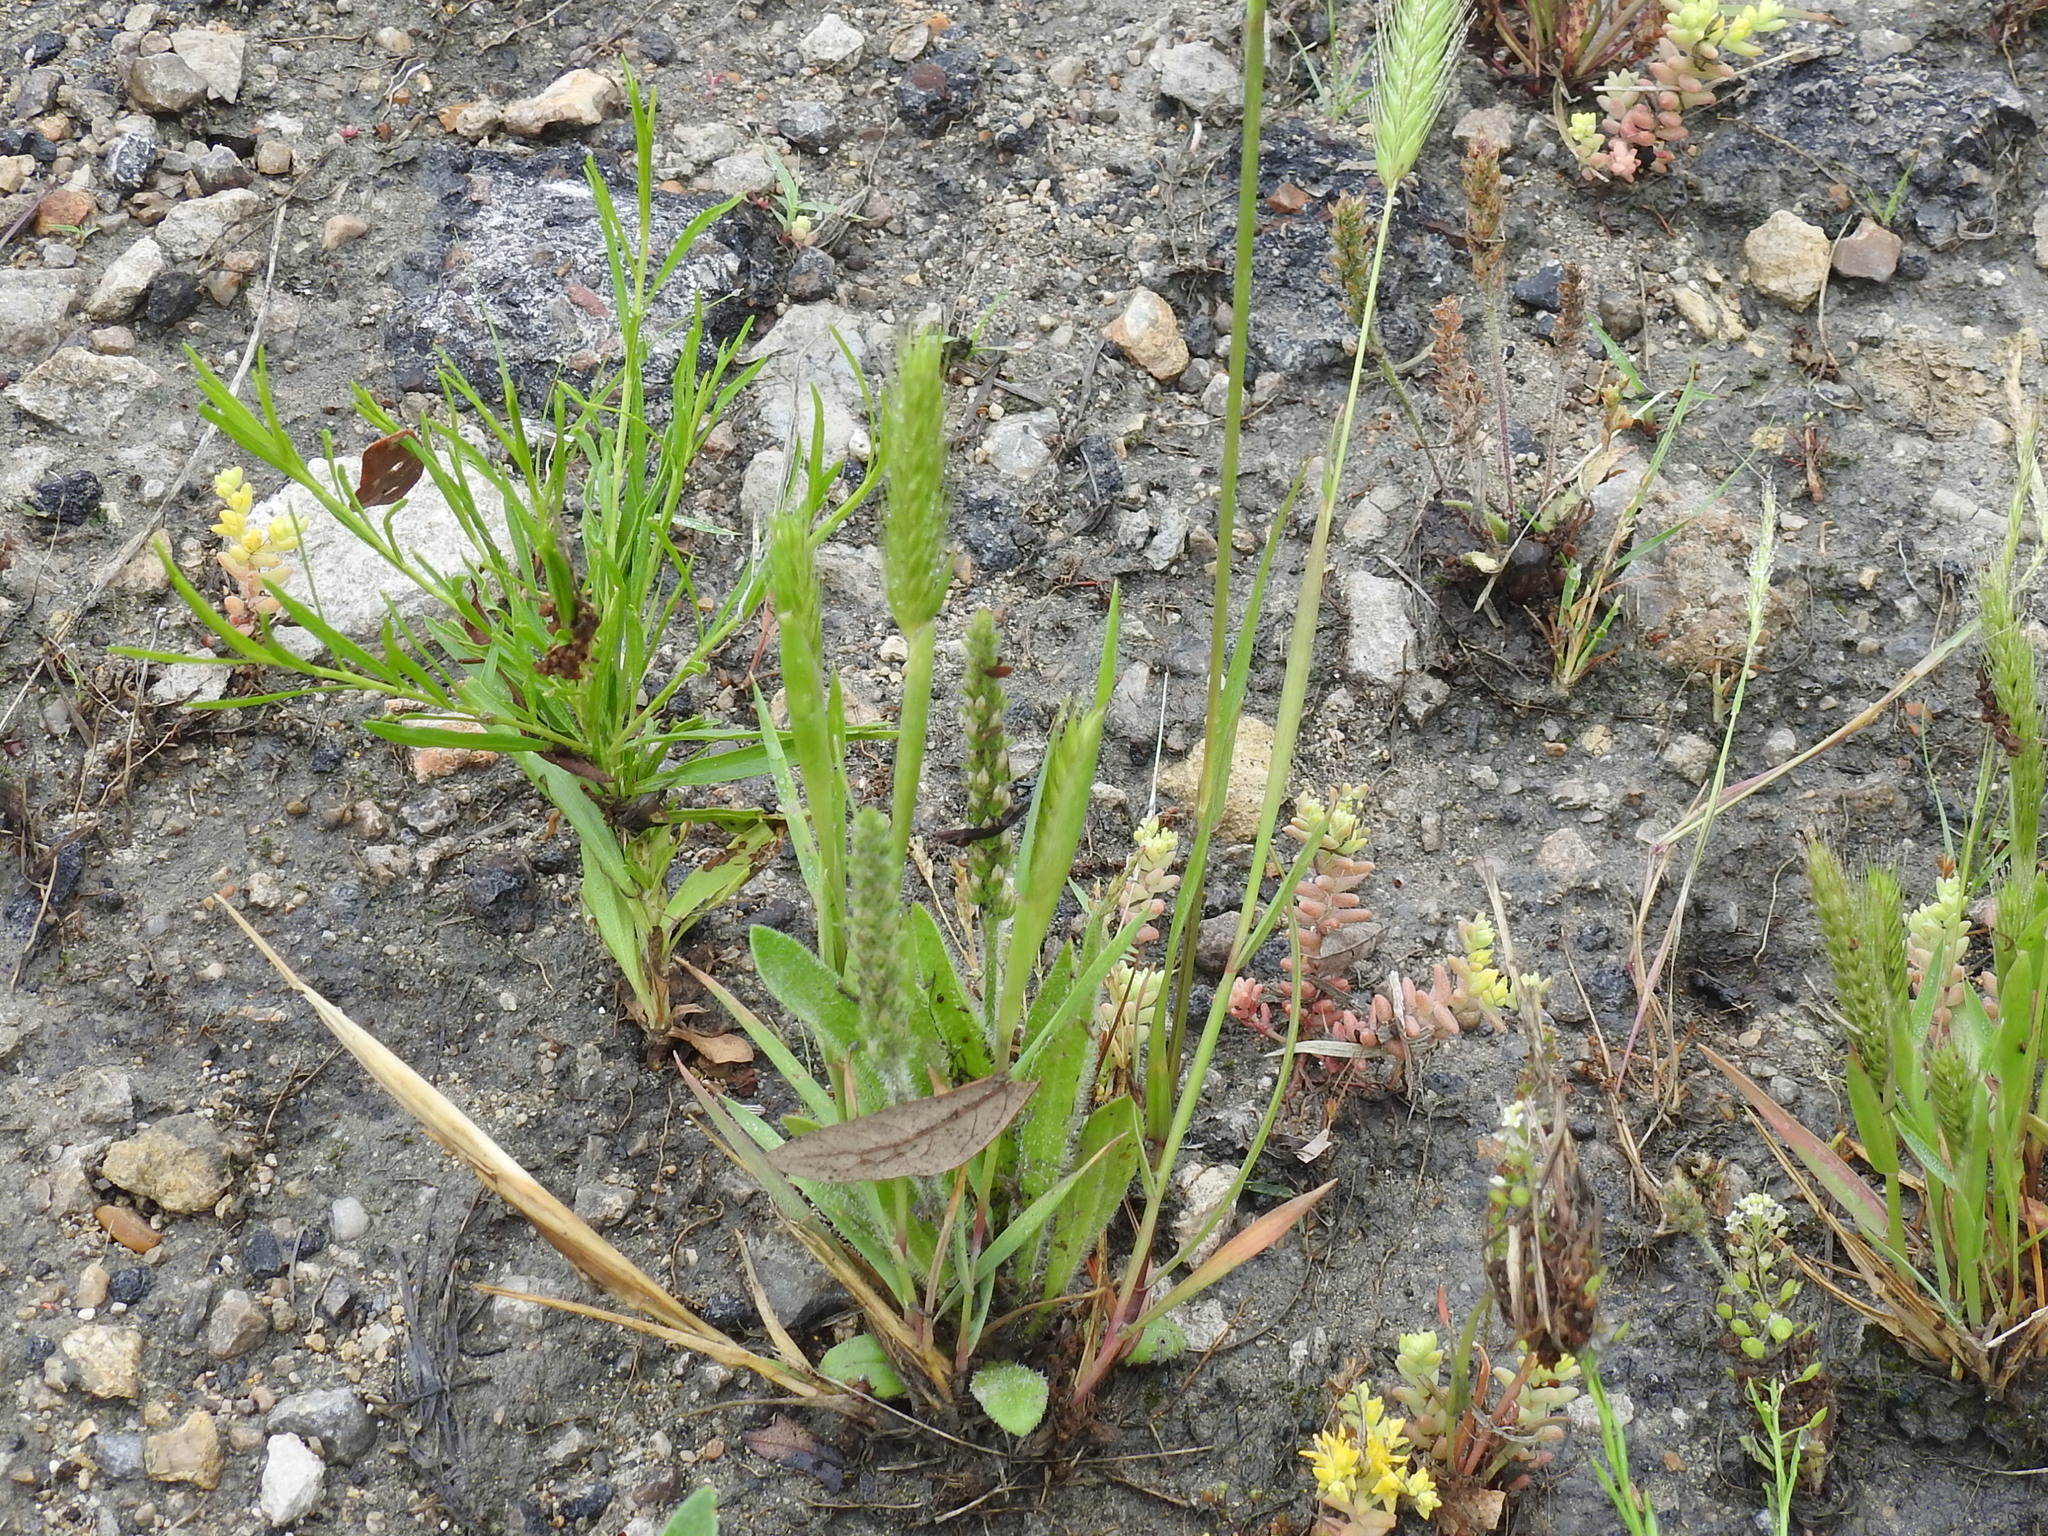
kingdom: Plantae
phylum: Tracheophyta
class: Liliopsida
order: Poales
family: Poaceae
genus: Hordeum
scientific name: Hordeum pusillum
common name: Little barley
